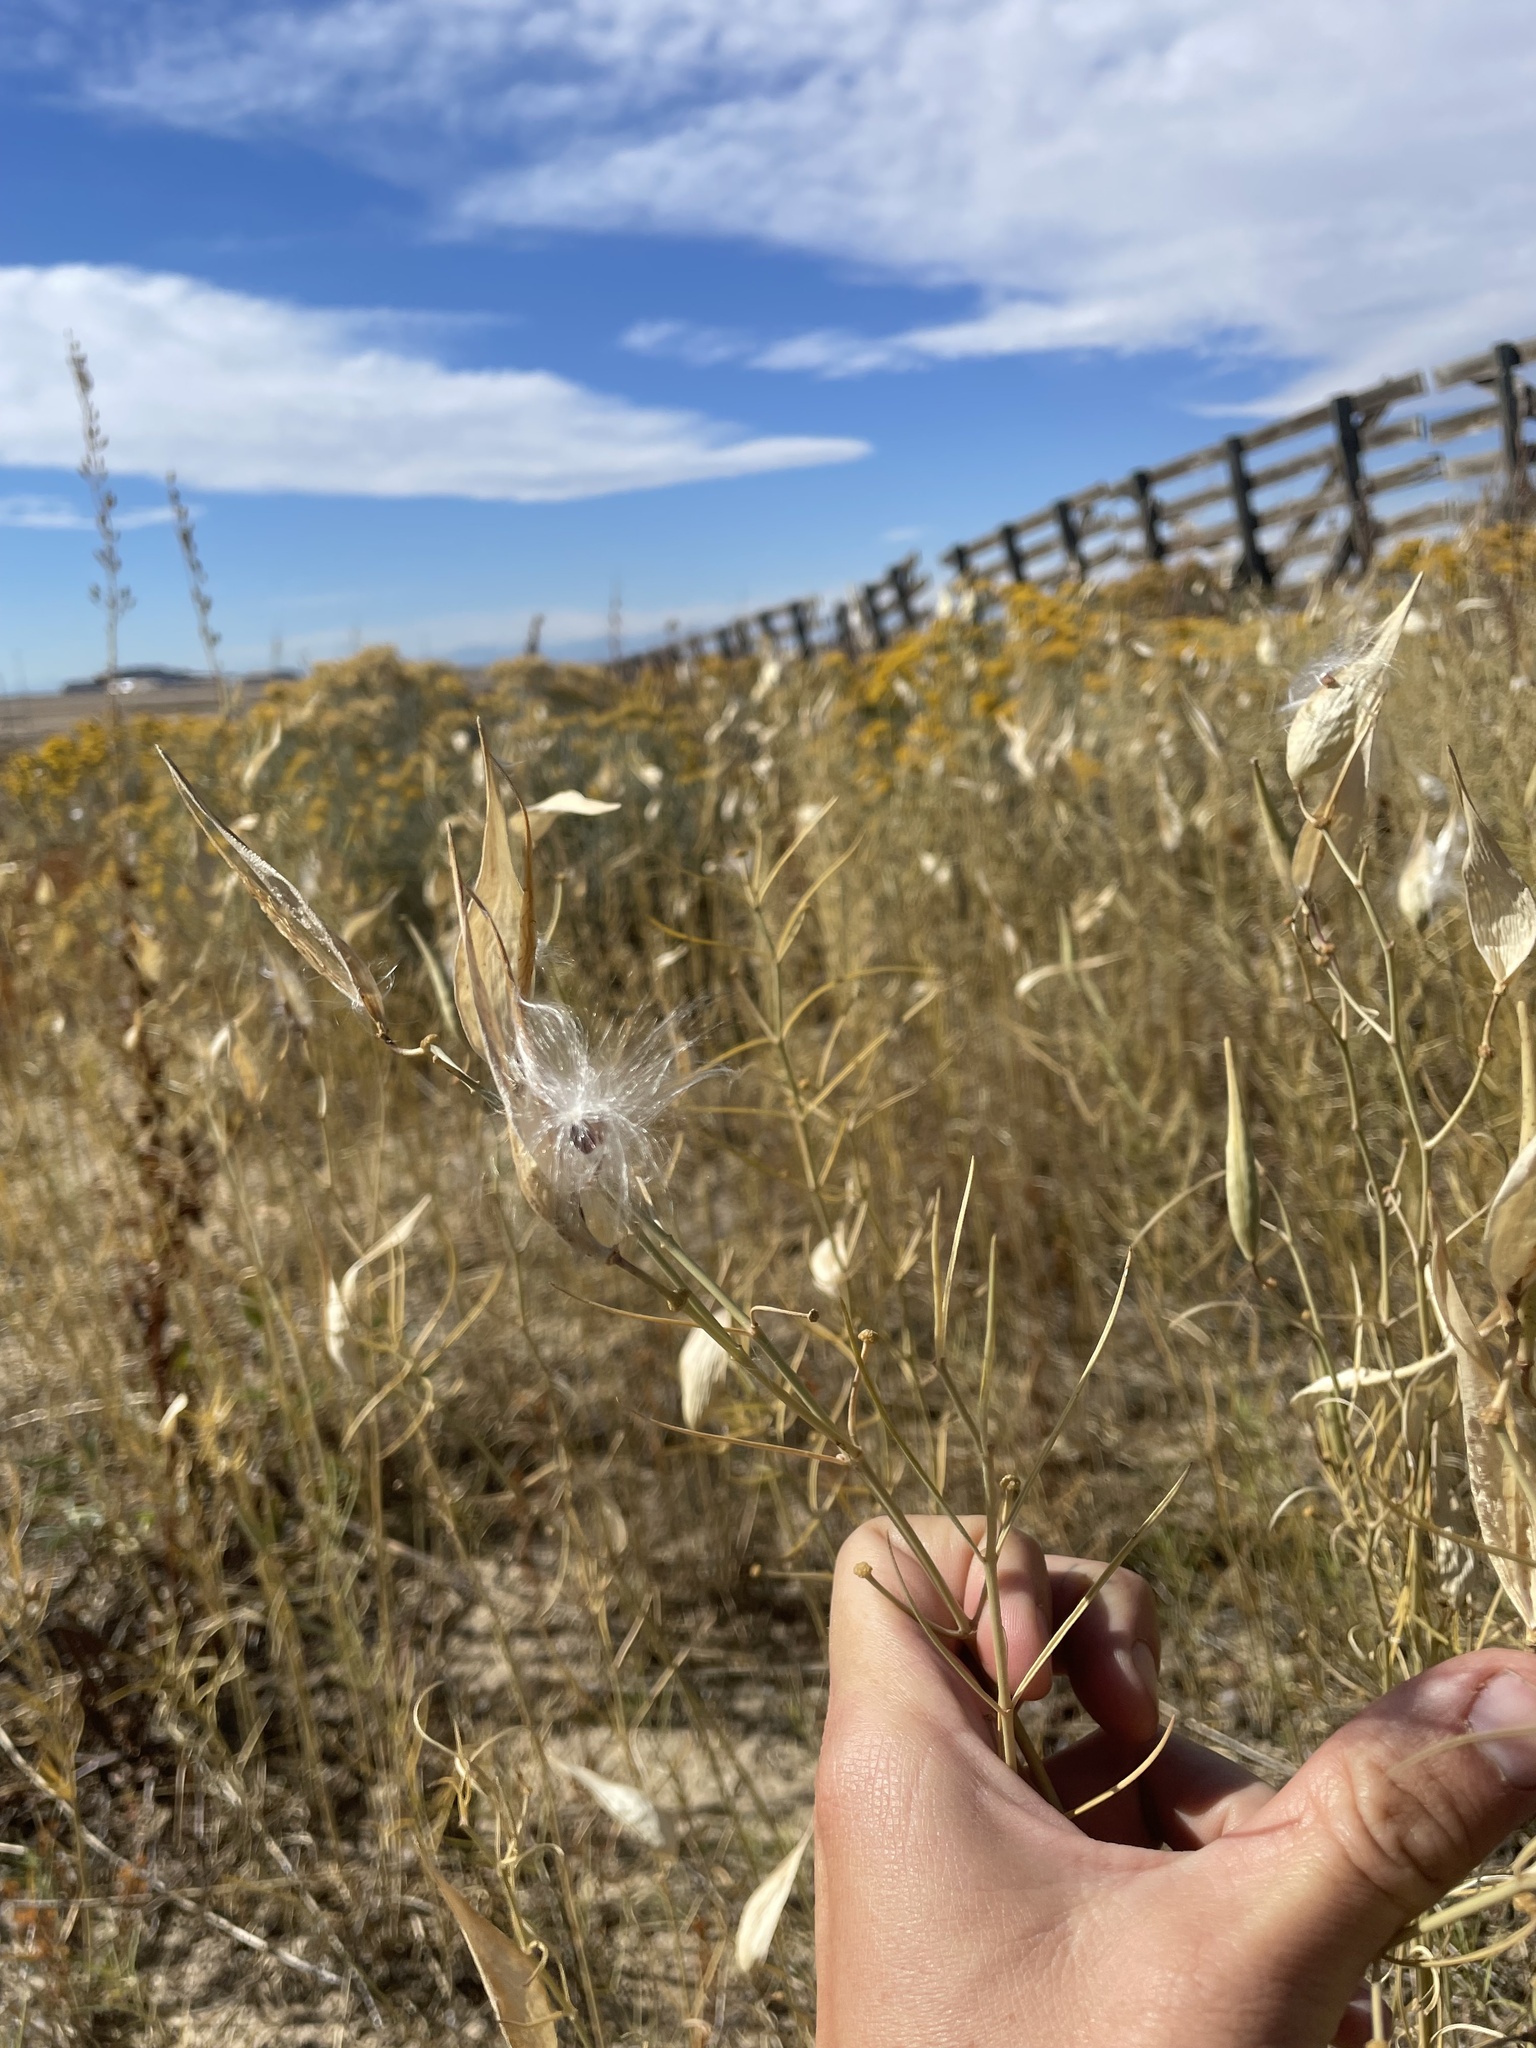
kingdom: Plantae
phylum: Tracheophyta
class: Magnoliopsida
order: Gentianales
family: Apocynaceae
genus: Asclepias
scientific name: Asclepias subverticillata
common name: Horsetail milkweed
